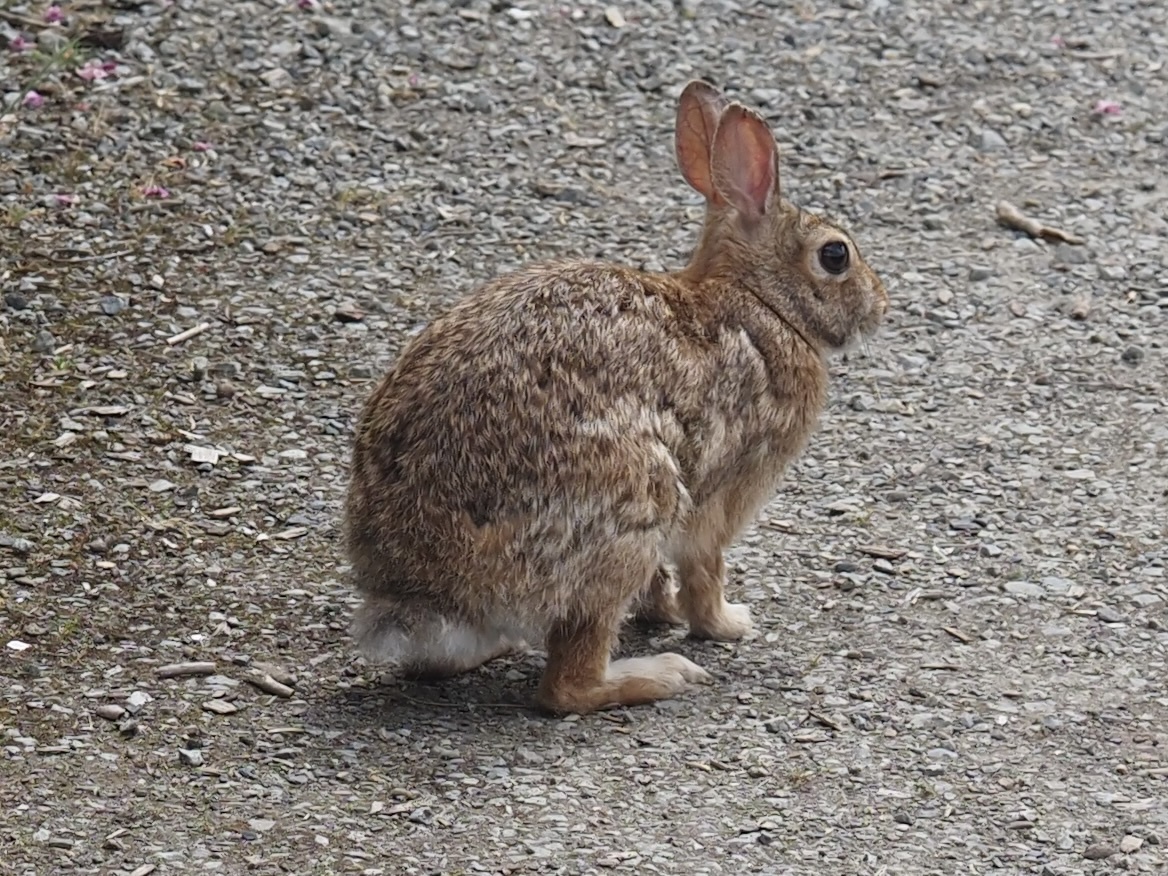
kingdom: Animalia
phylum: Chordata
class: Mammalia
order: Lagomorpha
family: Leporidae
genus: Sylvilagus
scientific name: Sylvilagus floridanus
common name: Eastern cottontail
